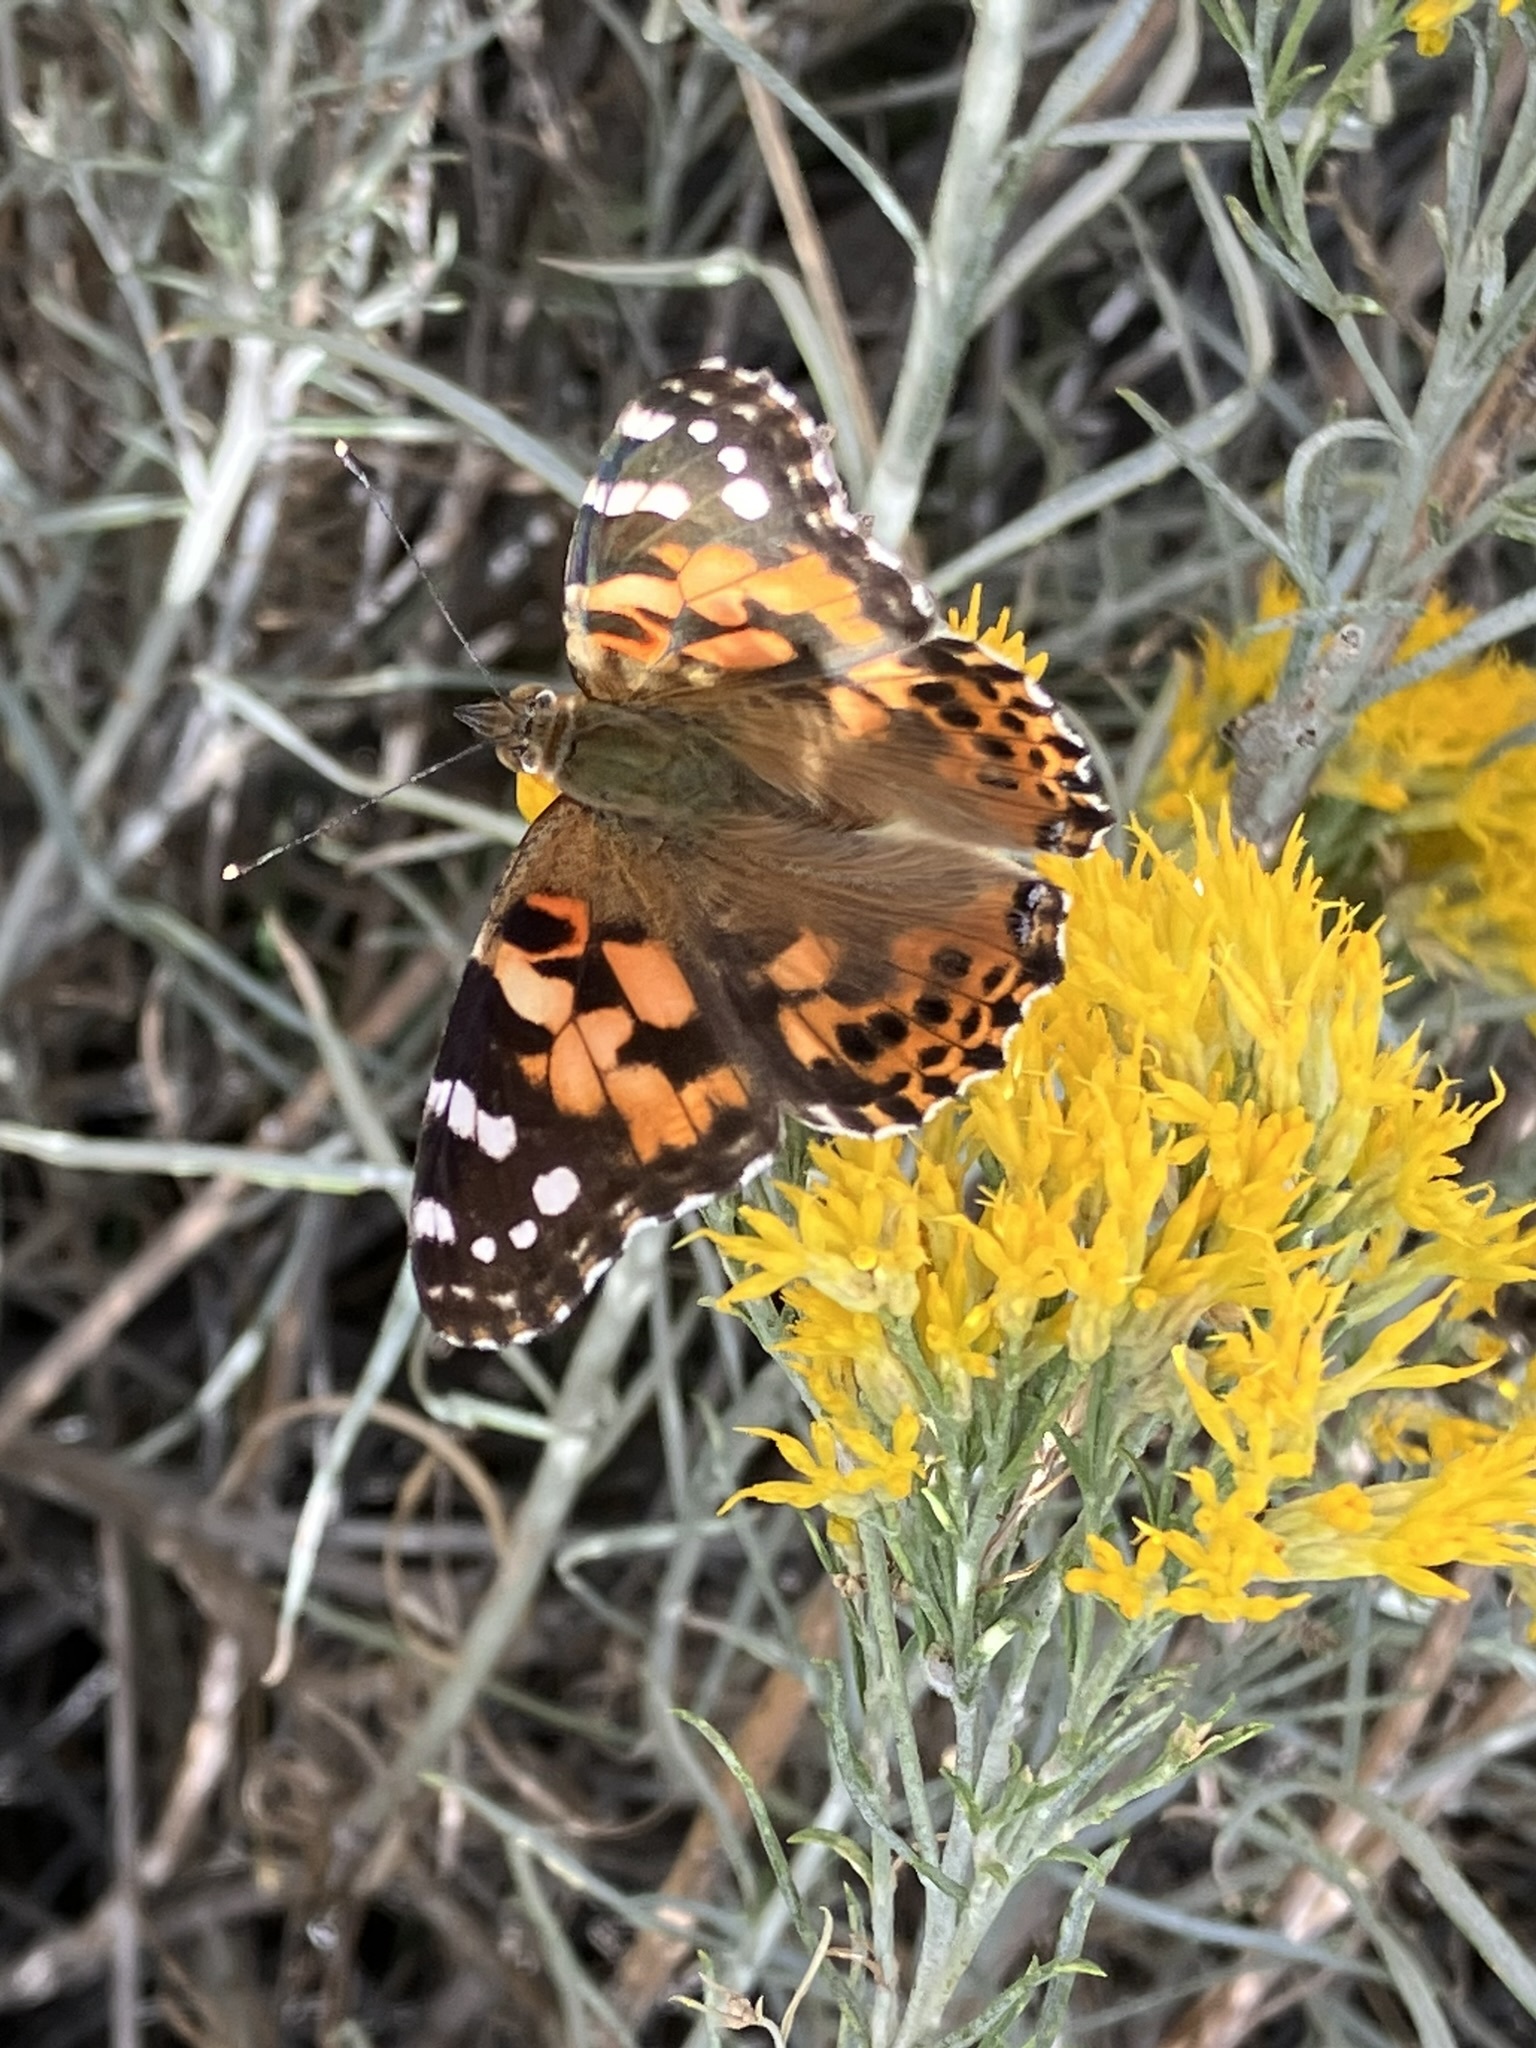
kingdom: Animalia
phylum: Arthropoda
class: Insecta
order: Lepidoptera
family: Nymphalidae
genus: Vanessa
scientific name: Vanessa cardui
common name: Painted lady
